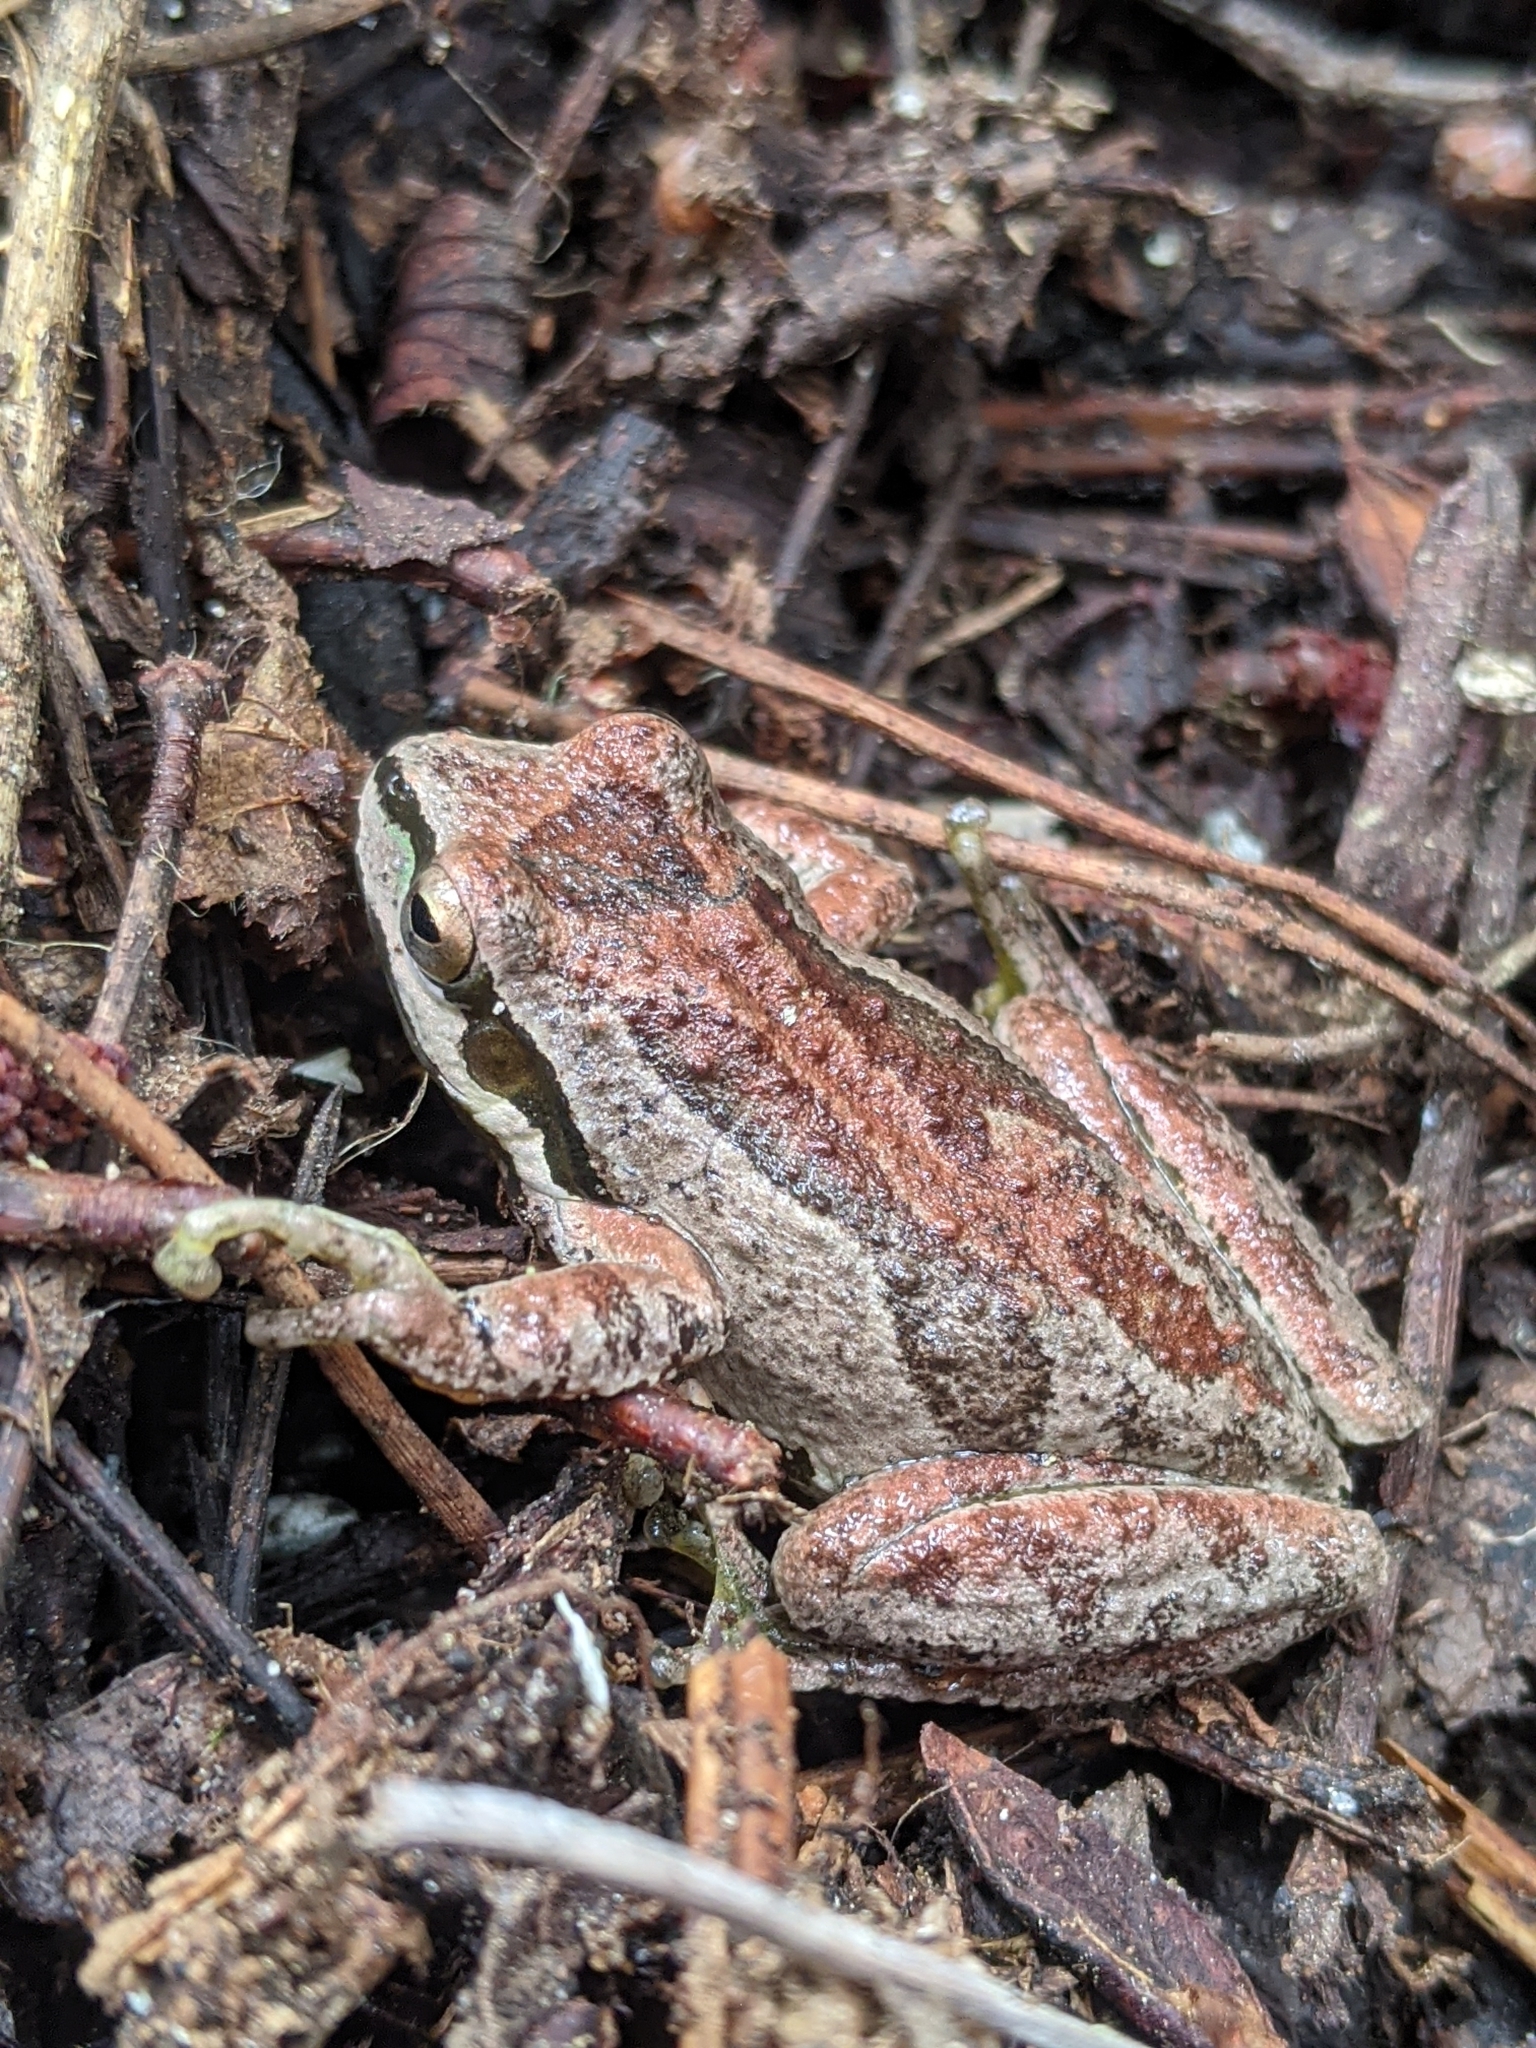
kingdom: Animalia
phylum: Chordata
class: Amphibia
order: Anura
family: Hylidae
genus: Pseudacris
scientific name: Pseudacris regilla
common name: Pacific chorus frog
